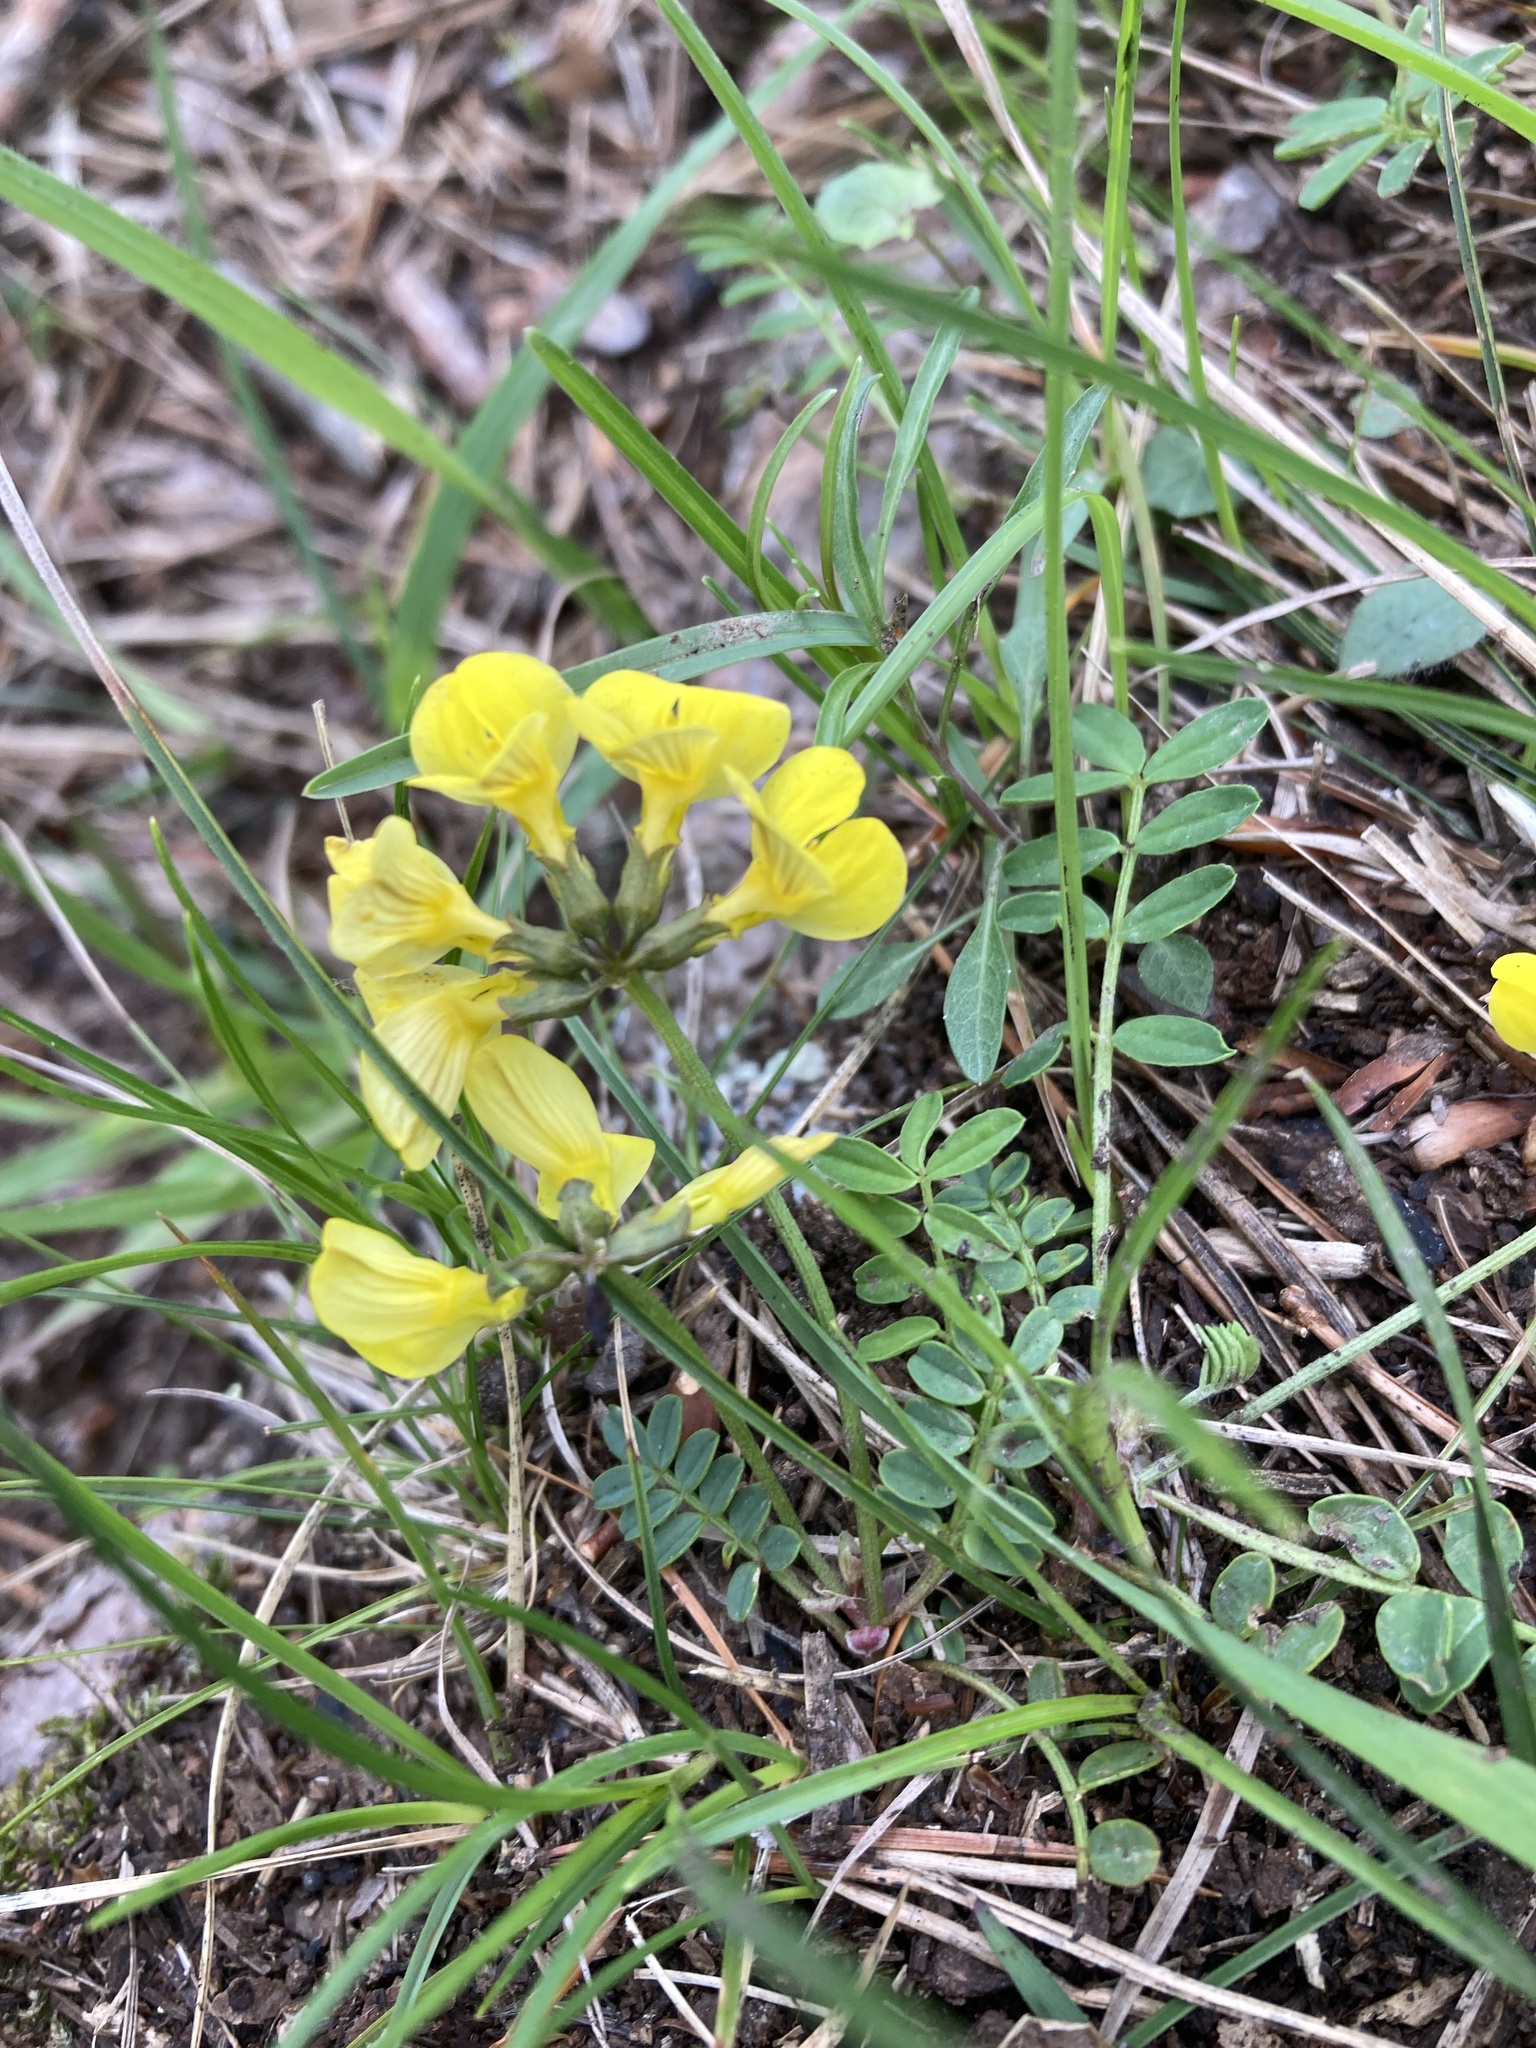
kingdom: Plantae
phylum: Tracheophyta
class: Magnoliopsida
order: Fabales
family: Fabaceae
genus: Hippocrepis
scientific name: Hippocrepis comosa
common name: Horseshoe vetch
